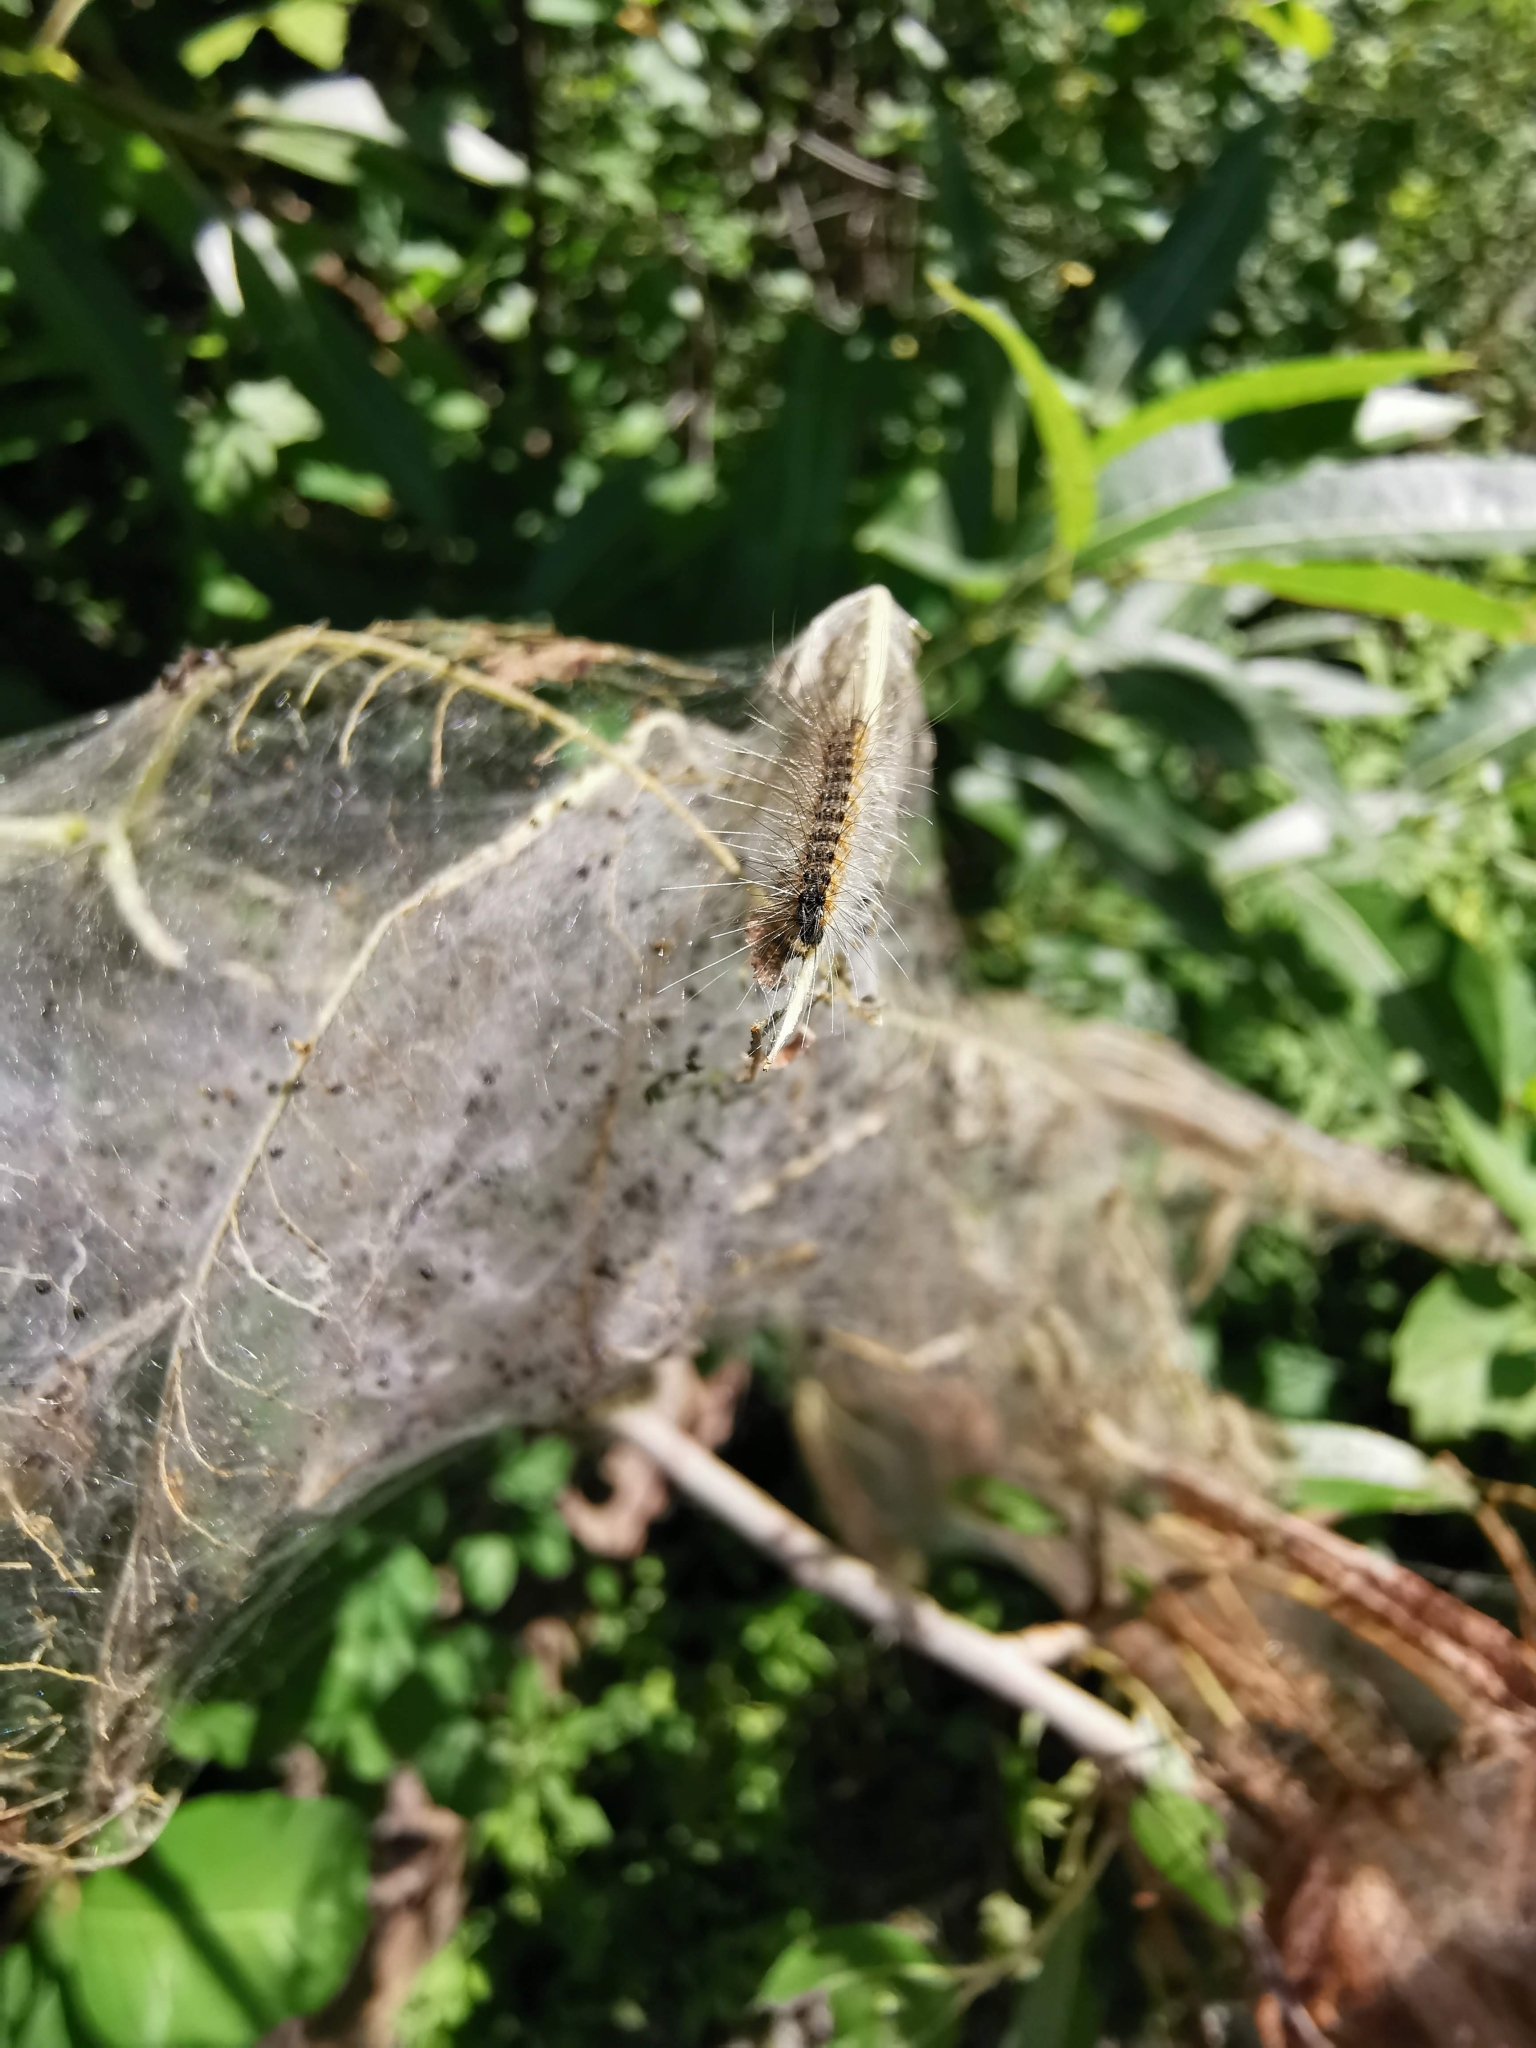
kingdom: Animalia
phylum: Arthropoda
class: Insecta
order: Lepidoptera
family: Erebidae
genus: Hyphantria
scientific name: Hyphantria cunea
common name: American white moth
